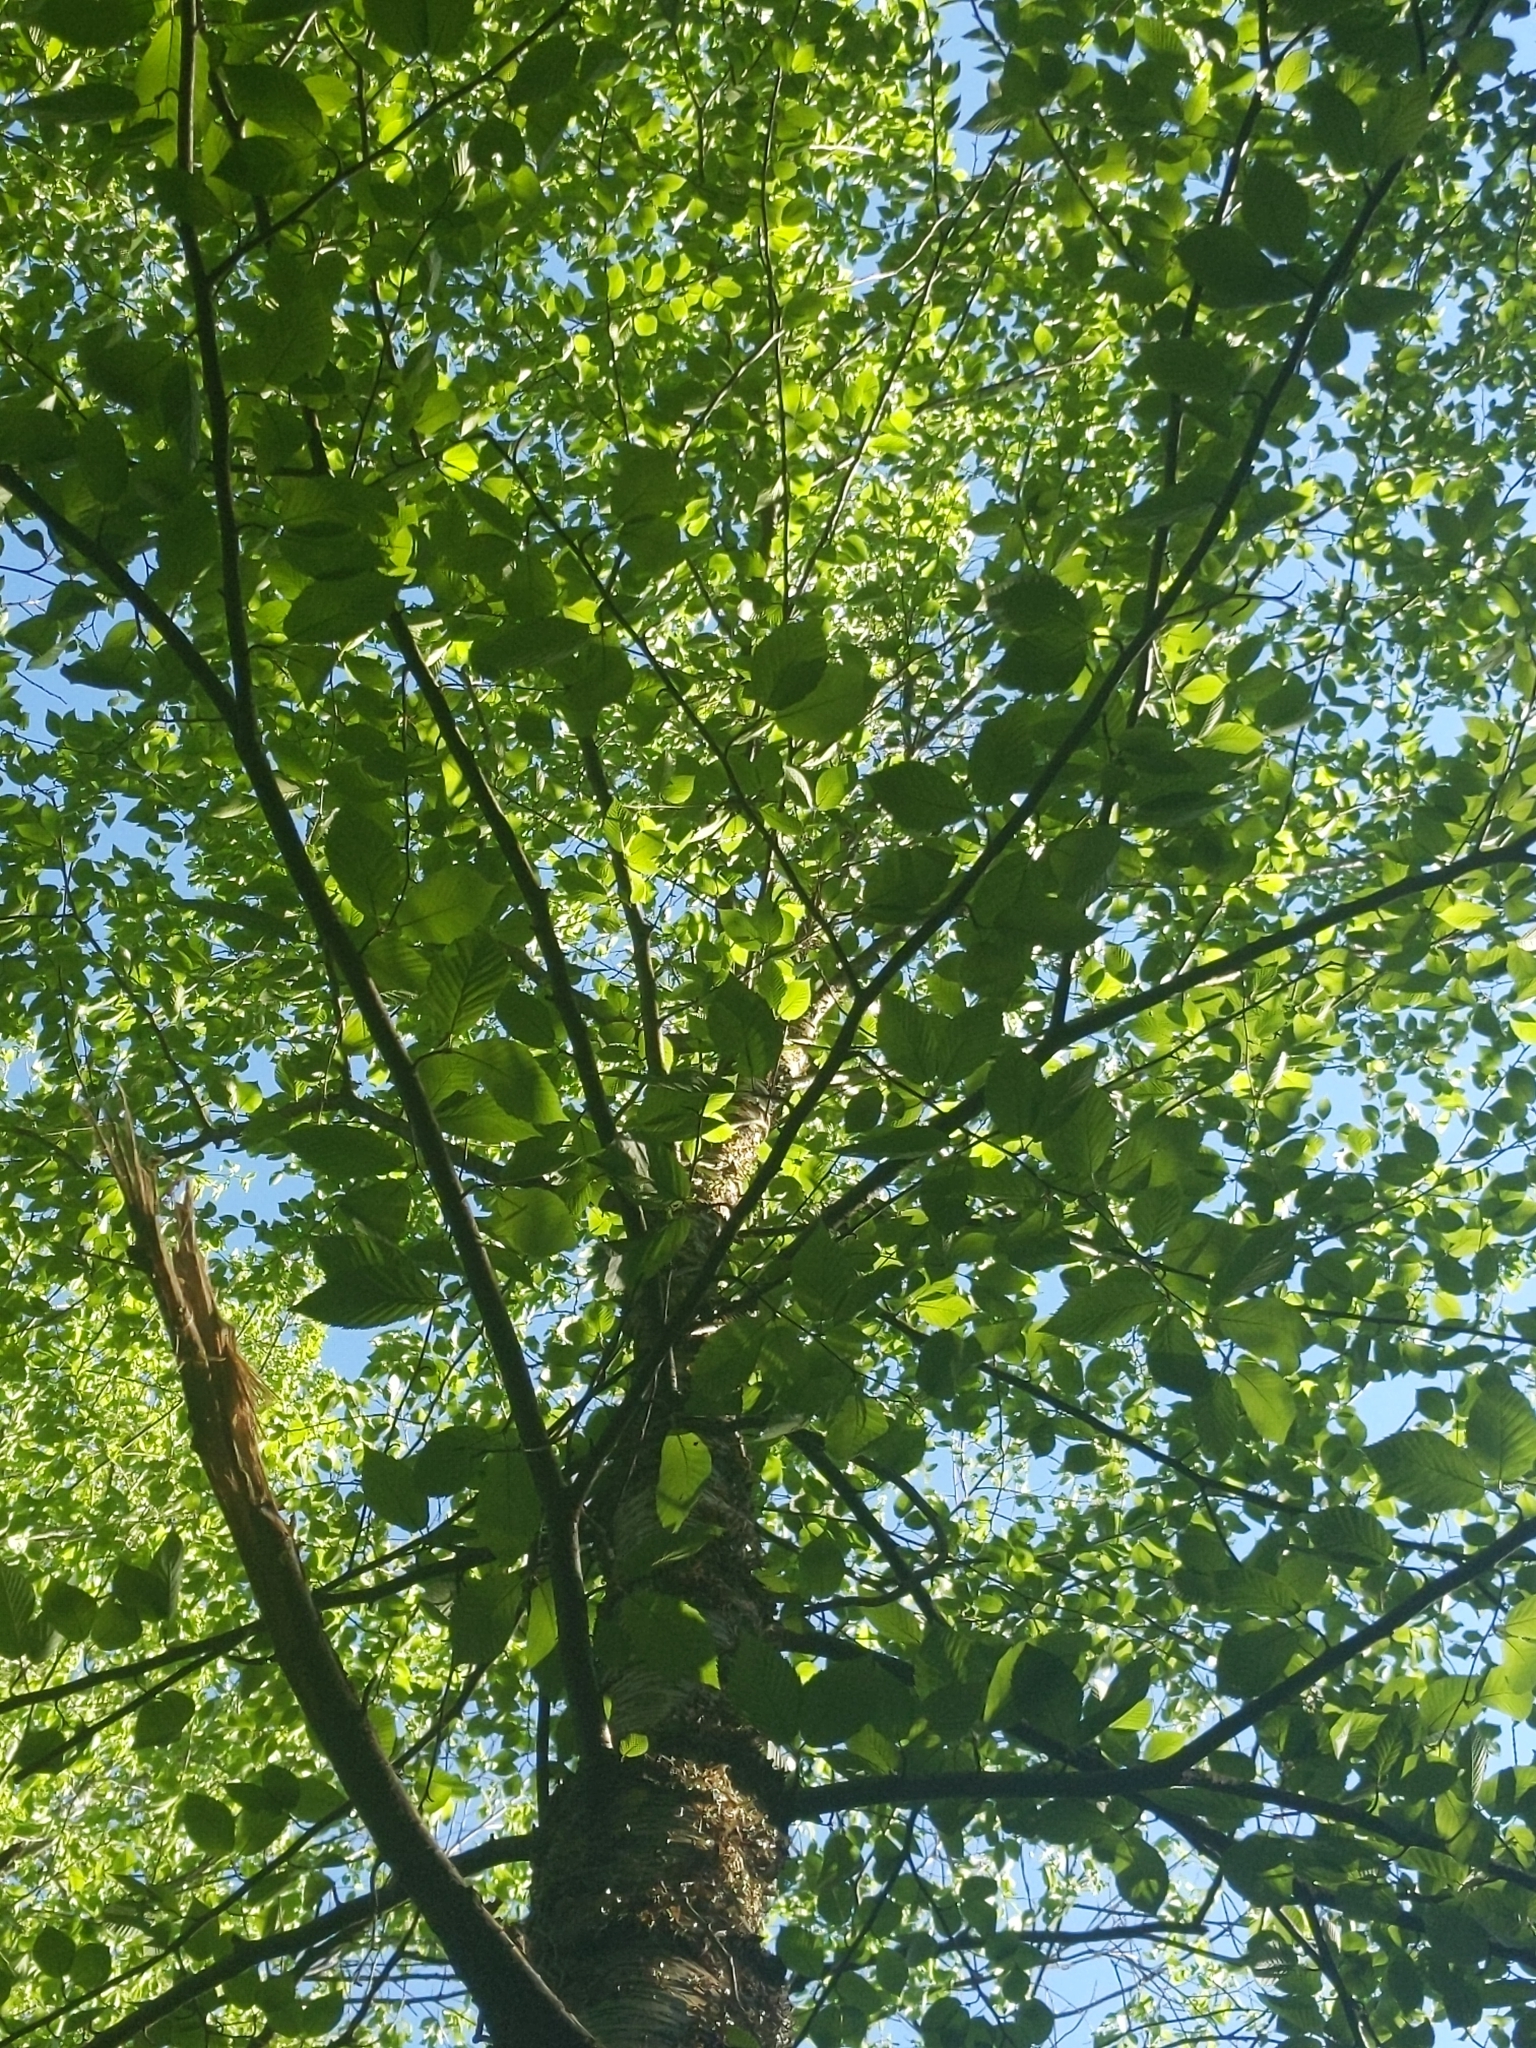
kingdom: Plantae
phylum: Tracheophyta
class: Magnoliopsida
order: Fagales
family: Betulaceae
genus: Betula
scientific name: Betula alleghaniensis
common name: Yellow birch
